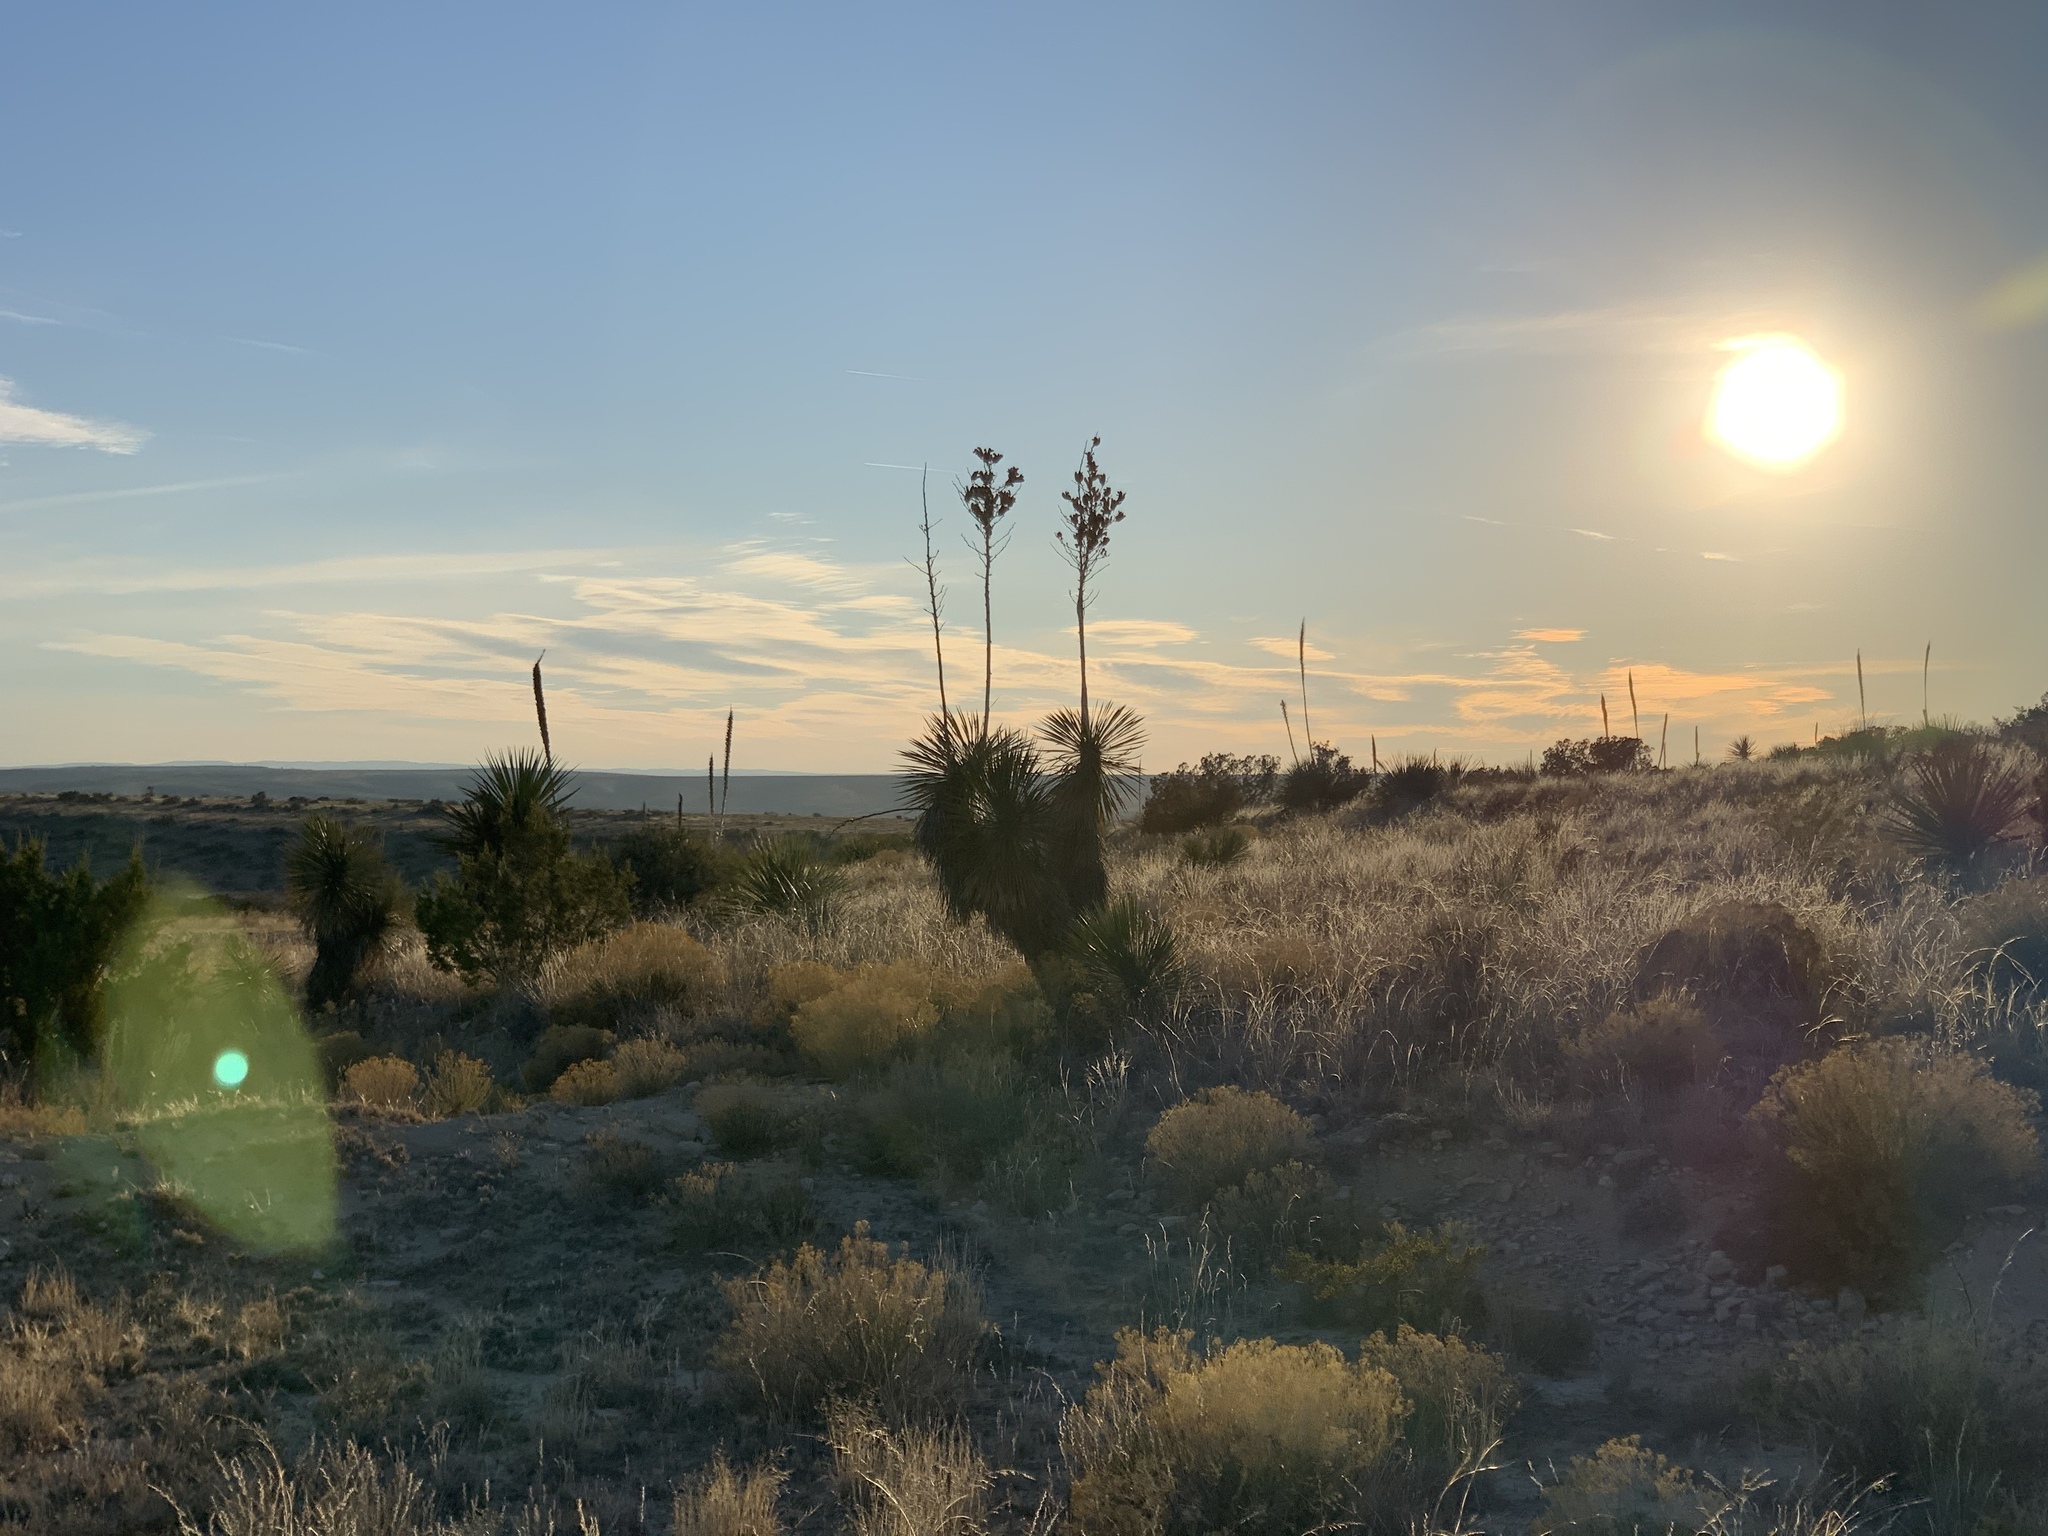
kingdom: Plantae
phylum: Tracheophyta
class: Liliopsida
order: Asparagales
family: Asparagaceae
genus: Yucca
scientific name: Yucca elata
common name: Palmella
